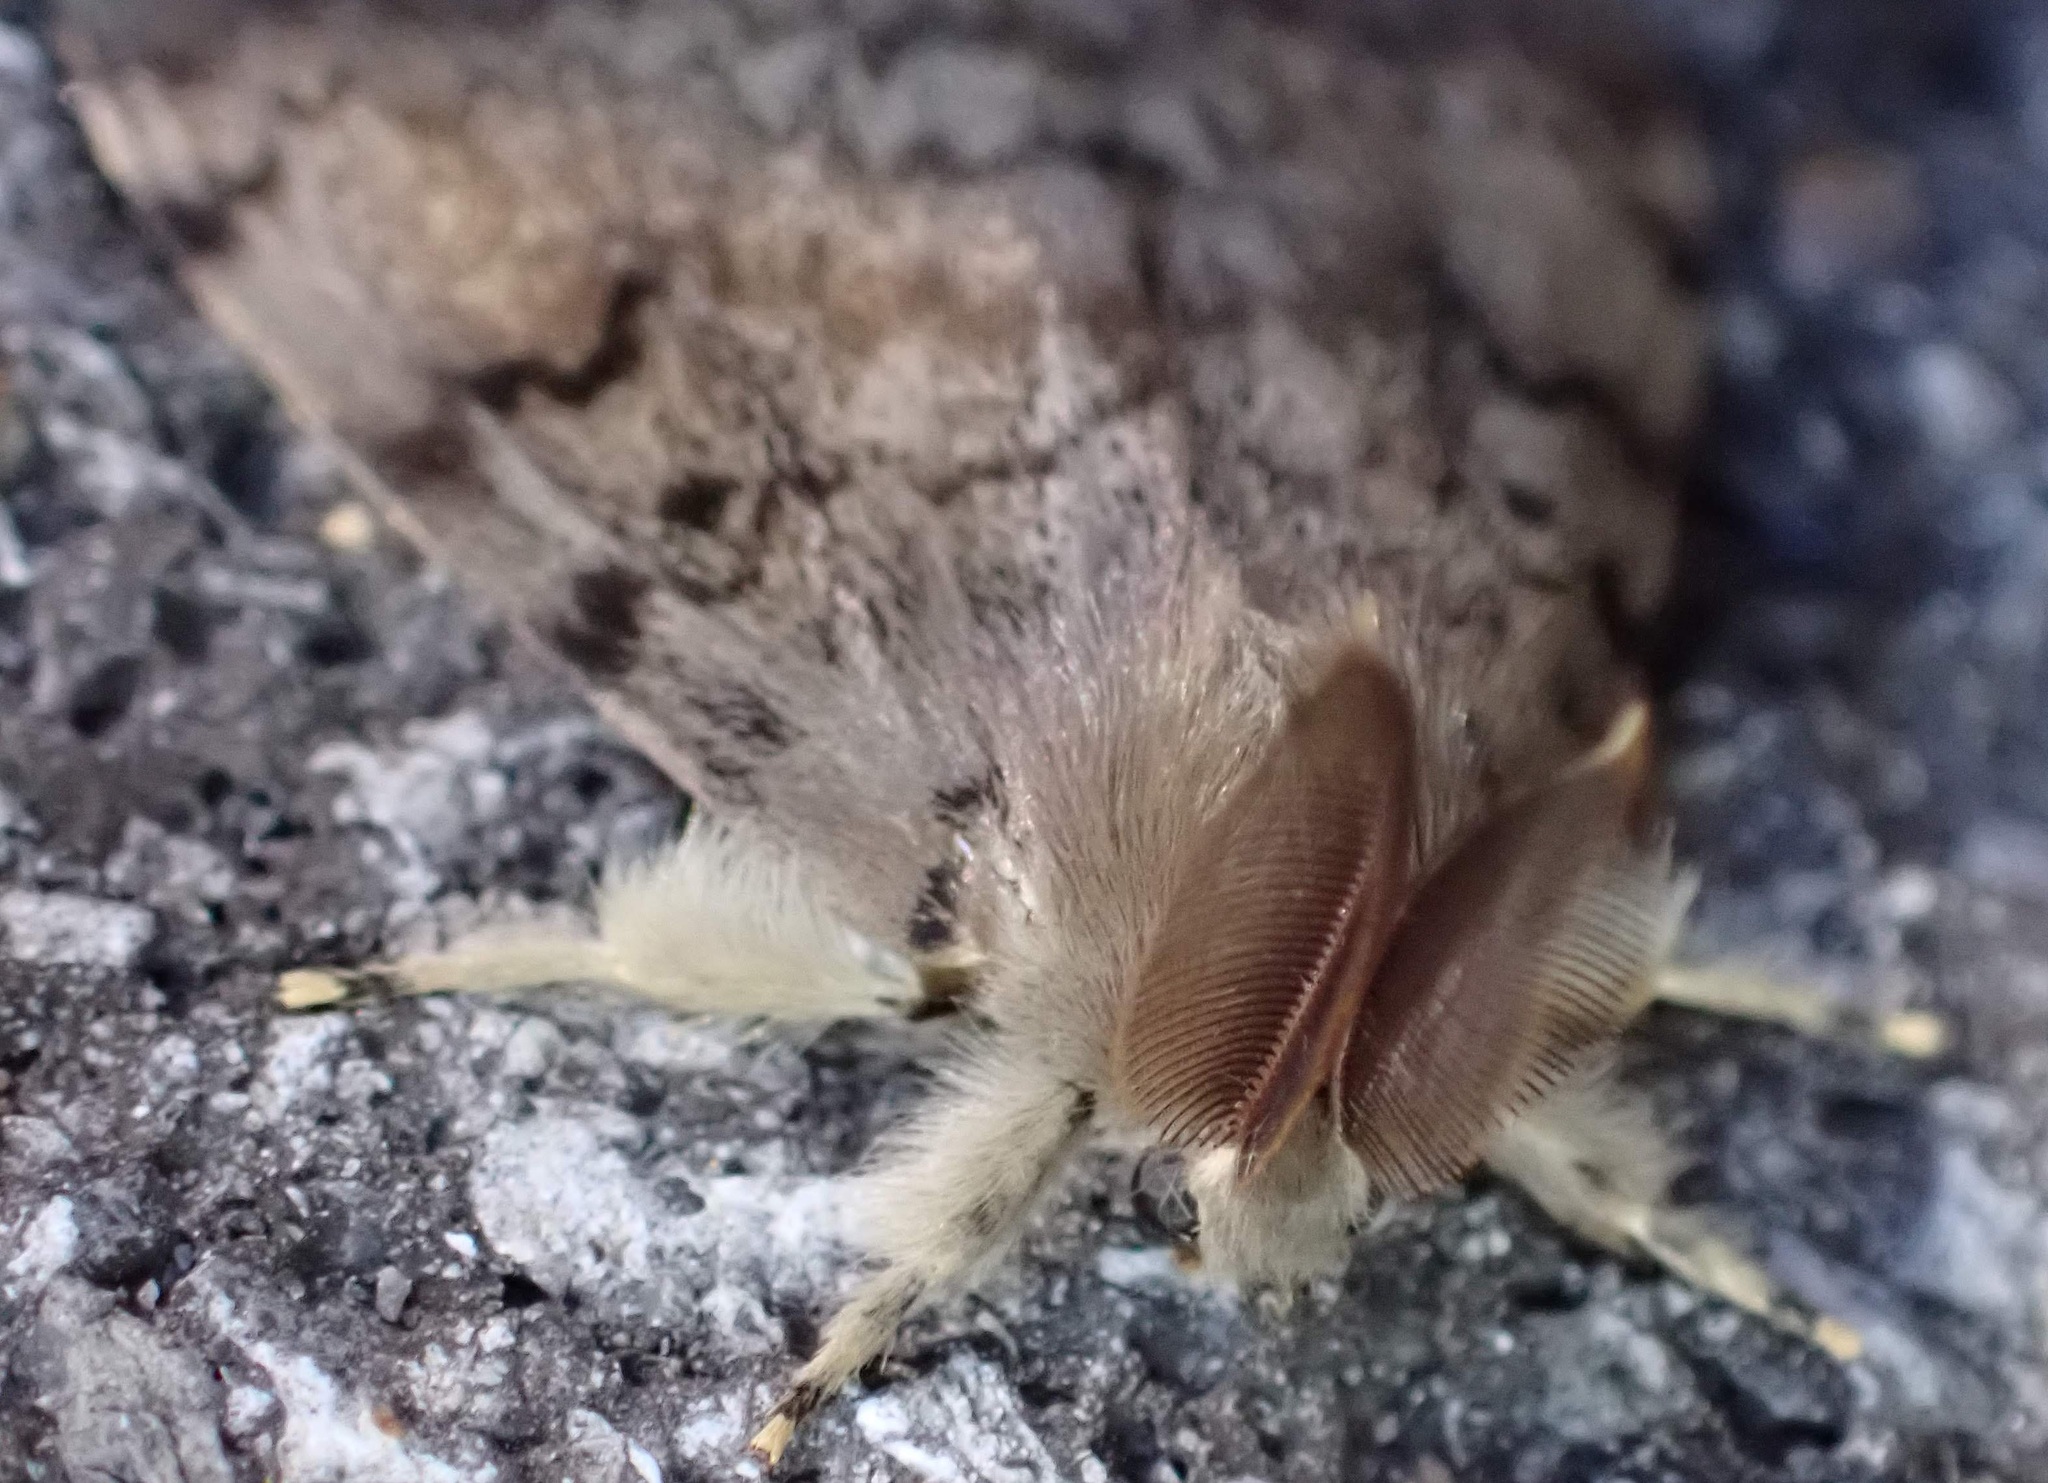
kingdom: Animalia
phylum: Arthropoda
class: Insecta
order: Lepidoptera
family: Erebidae
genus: Lymantria
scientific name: Lymantria dispar
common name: Gypsy moth
